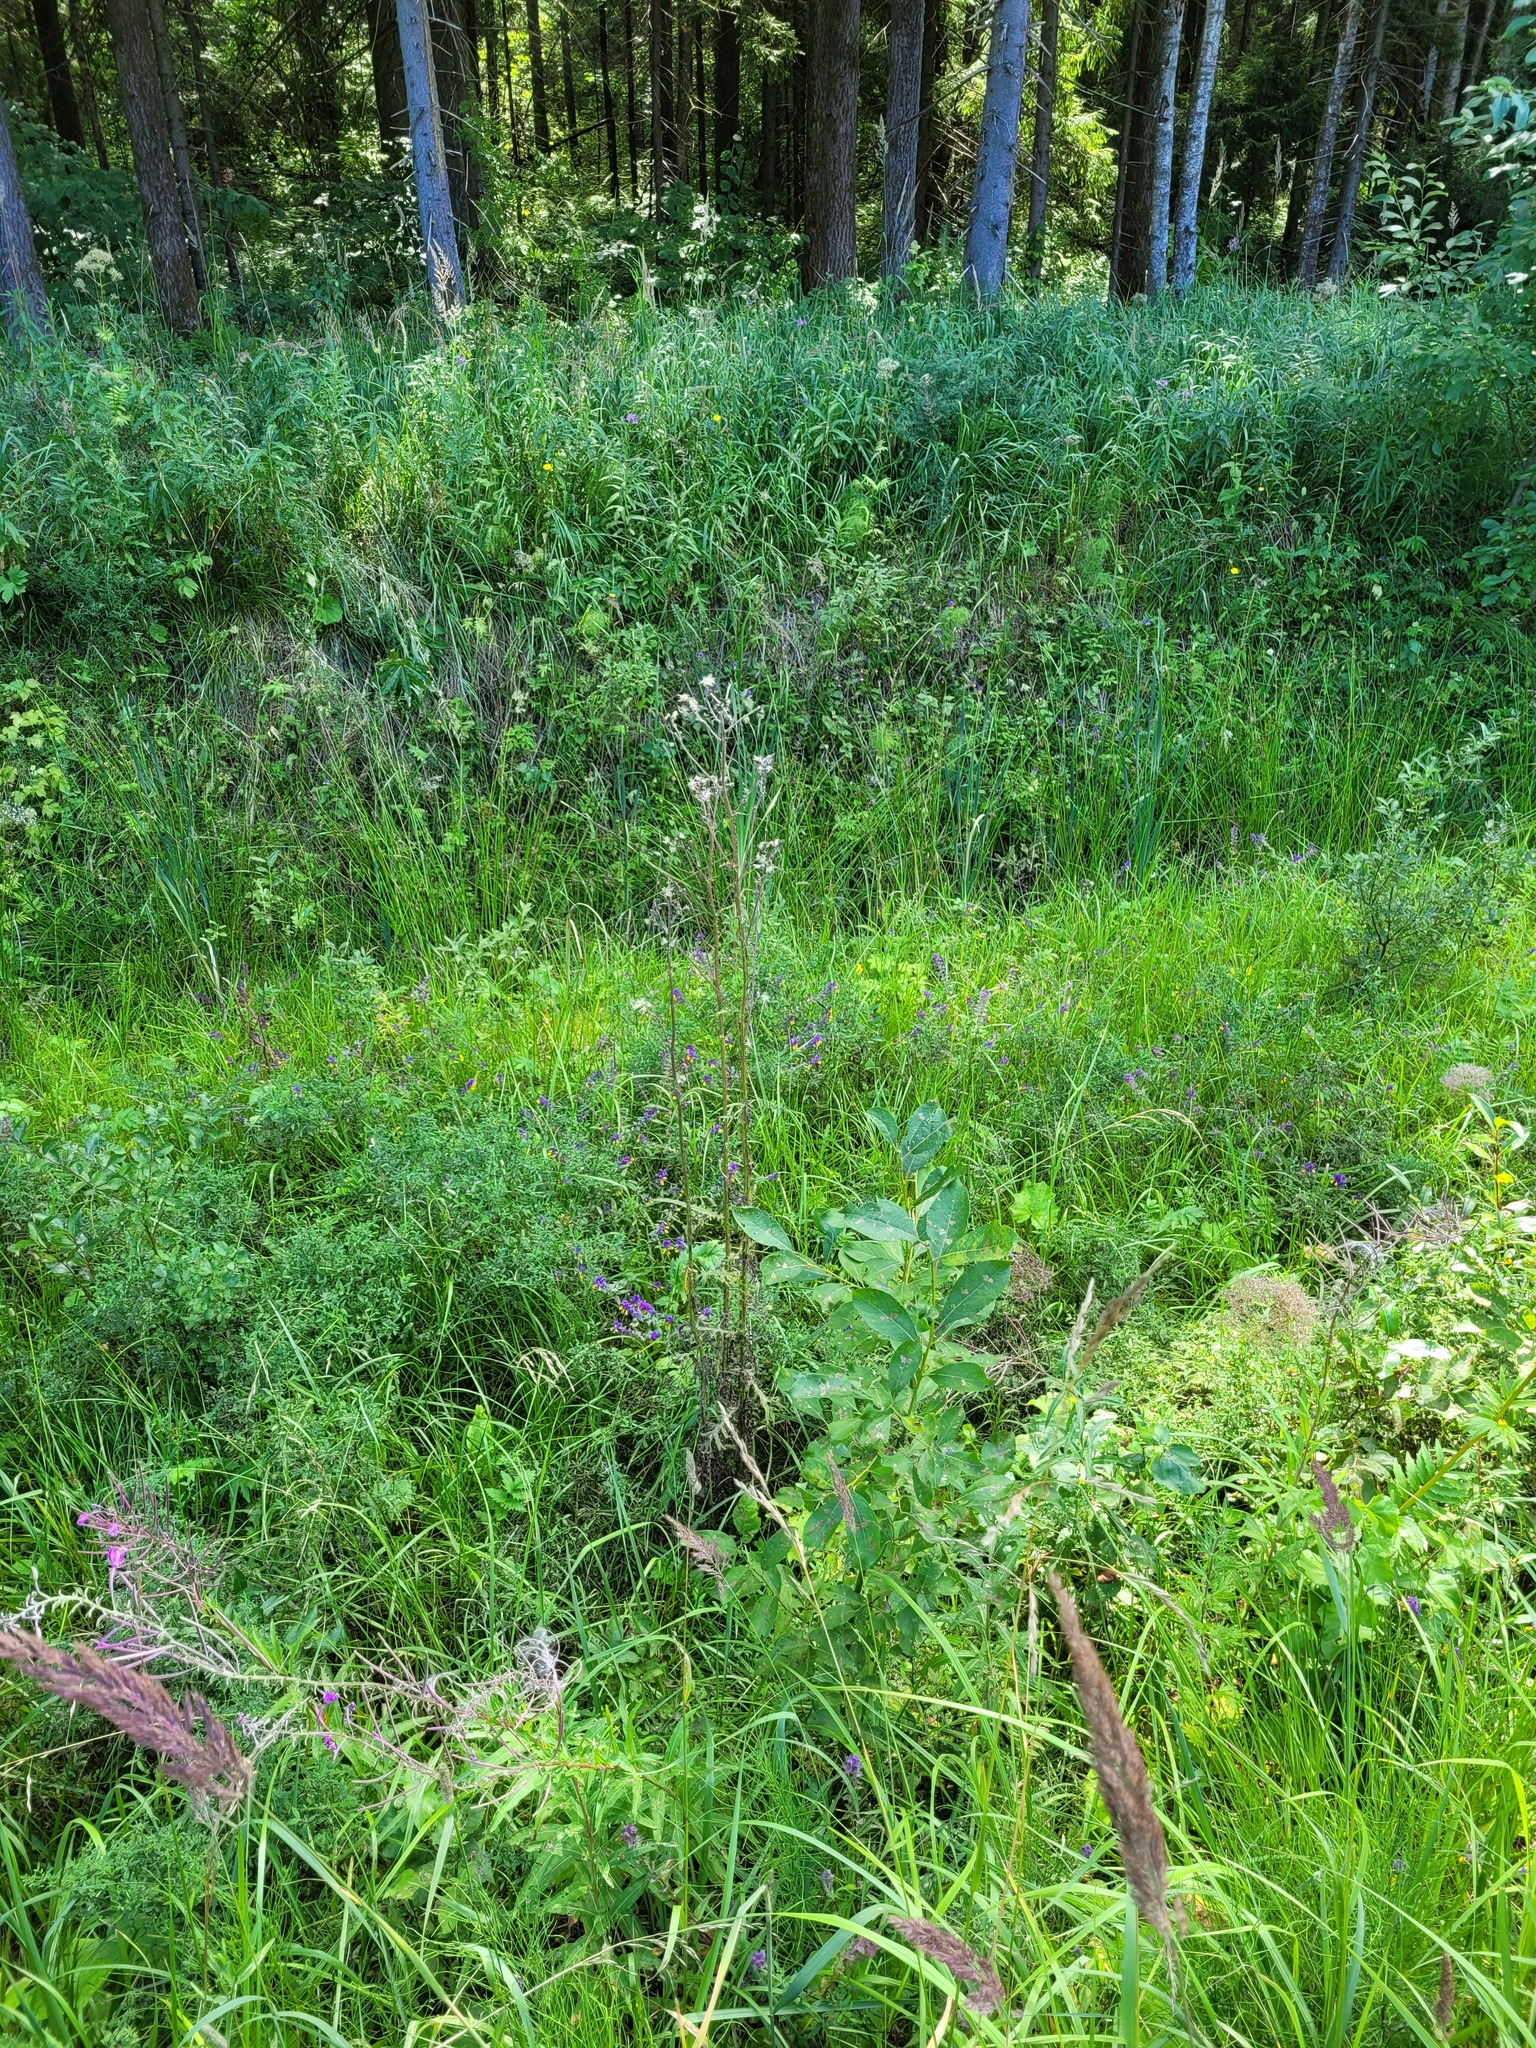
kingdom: Plantae
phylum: Tracheophyta
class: Magnoliopsida
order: Asterales
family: Asteraceae
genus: Cirsium
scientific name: Cirsium palustre
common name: Marsh thistle
